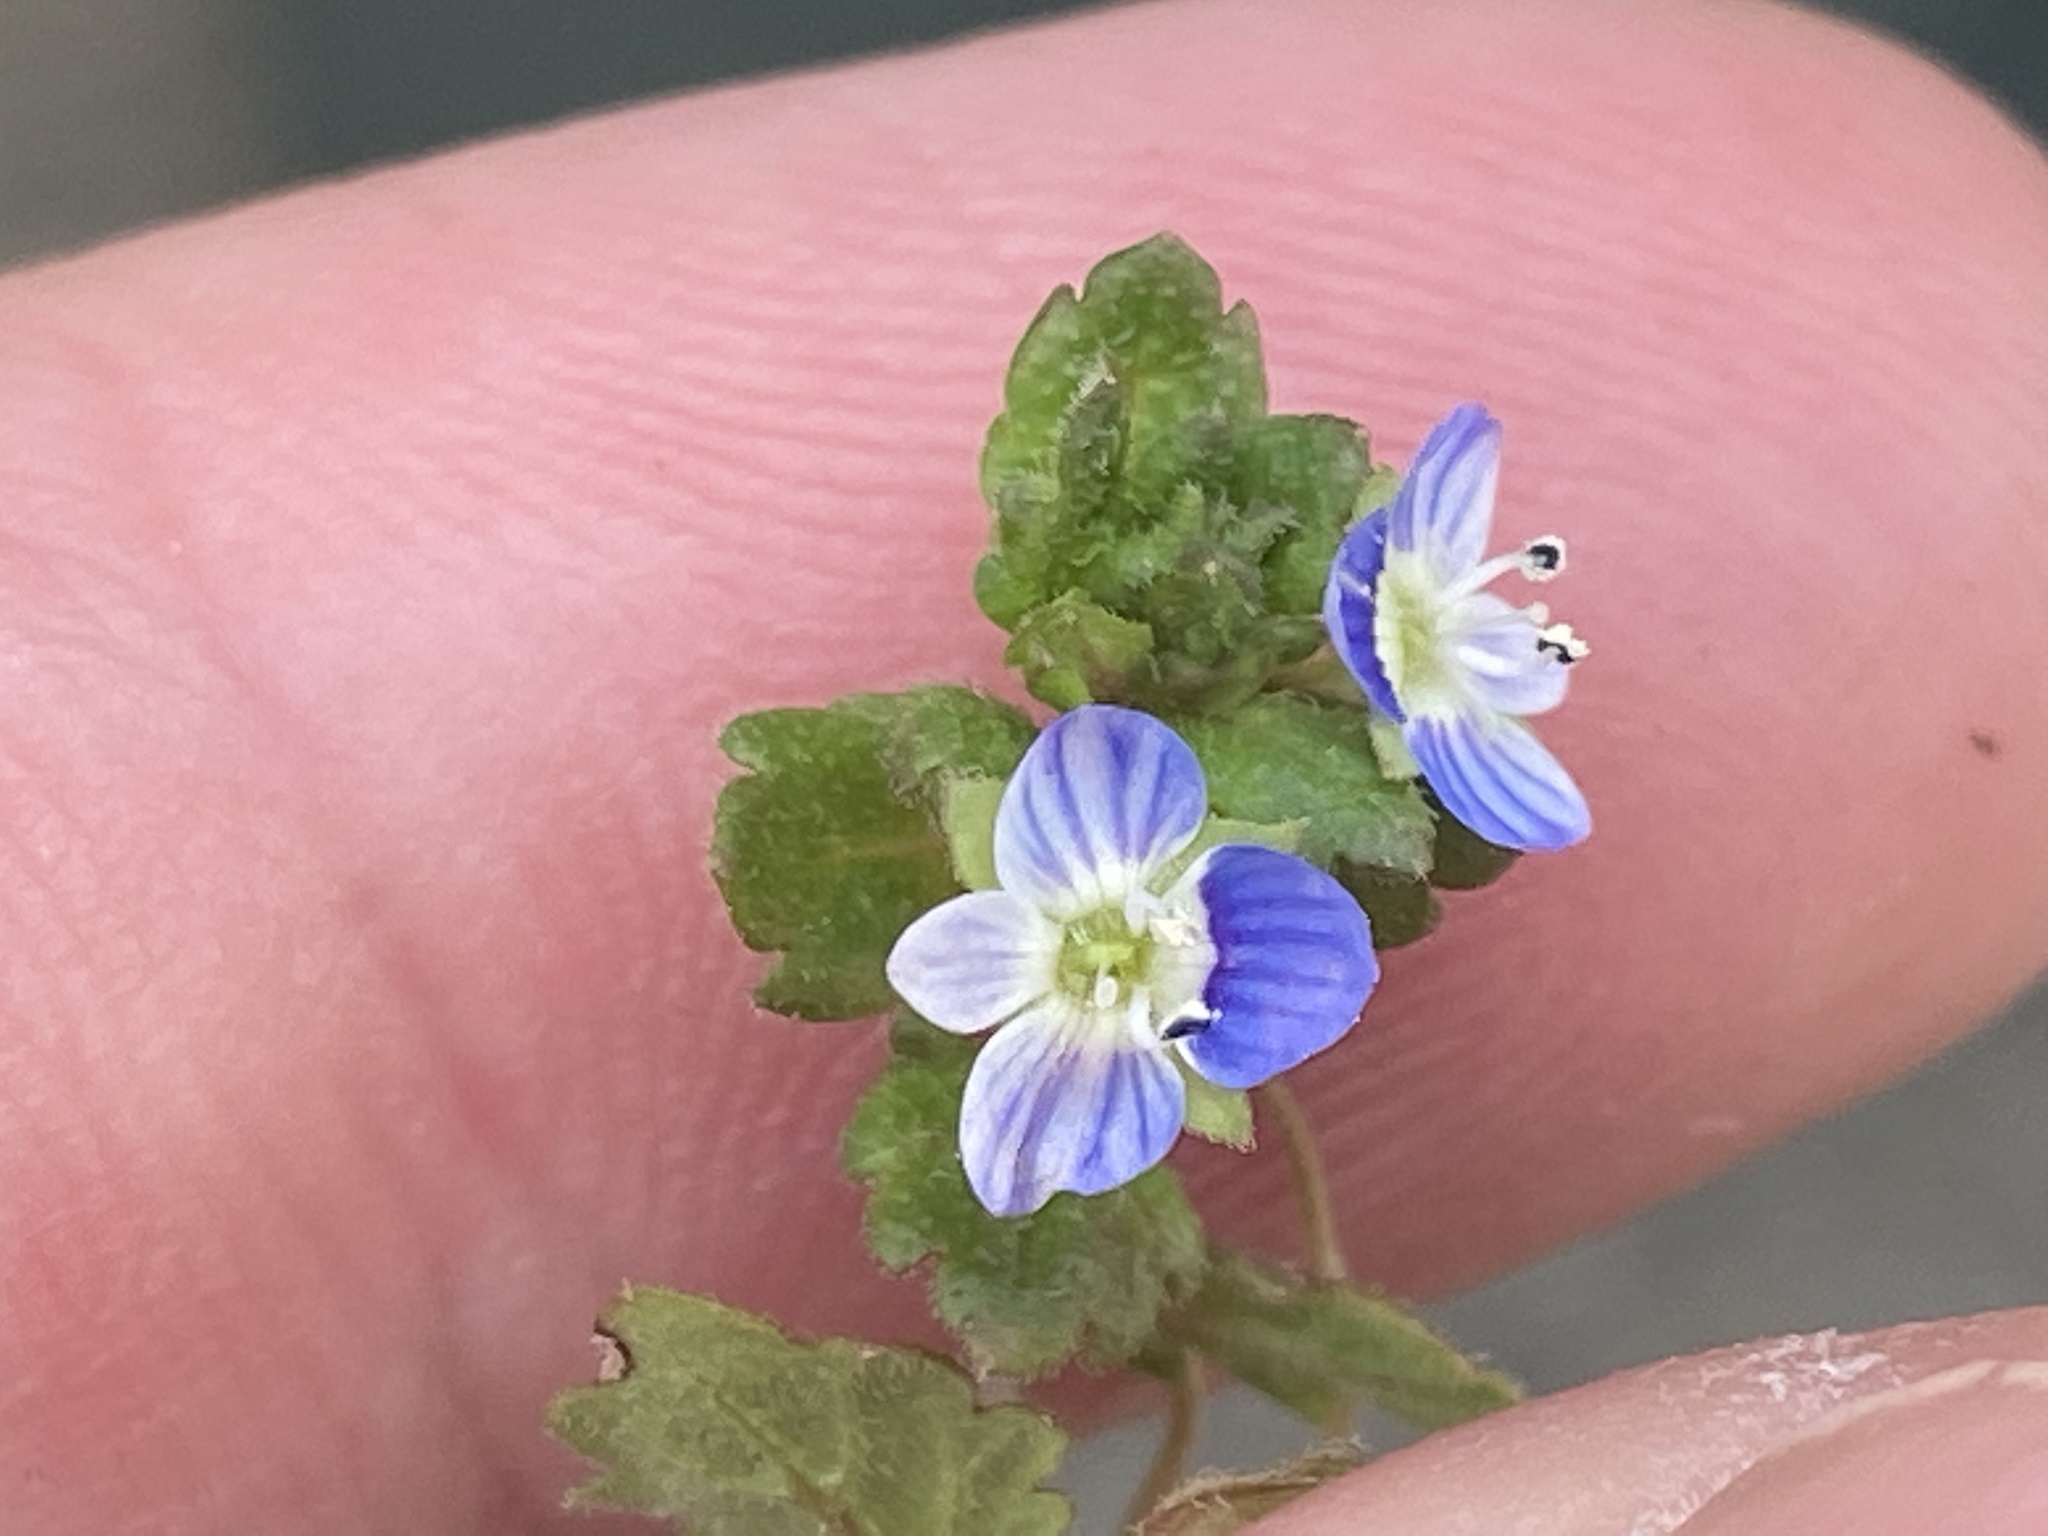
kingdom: Plantae
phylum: Tracheophyta
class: Magnoliopsida
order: Lamiales
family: Plantaginaceae
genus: Veronica
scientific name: Veronica polita
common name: Grey field-speedwell
